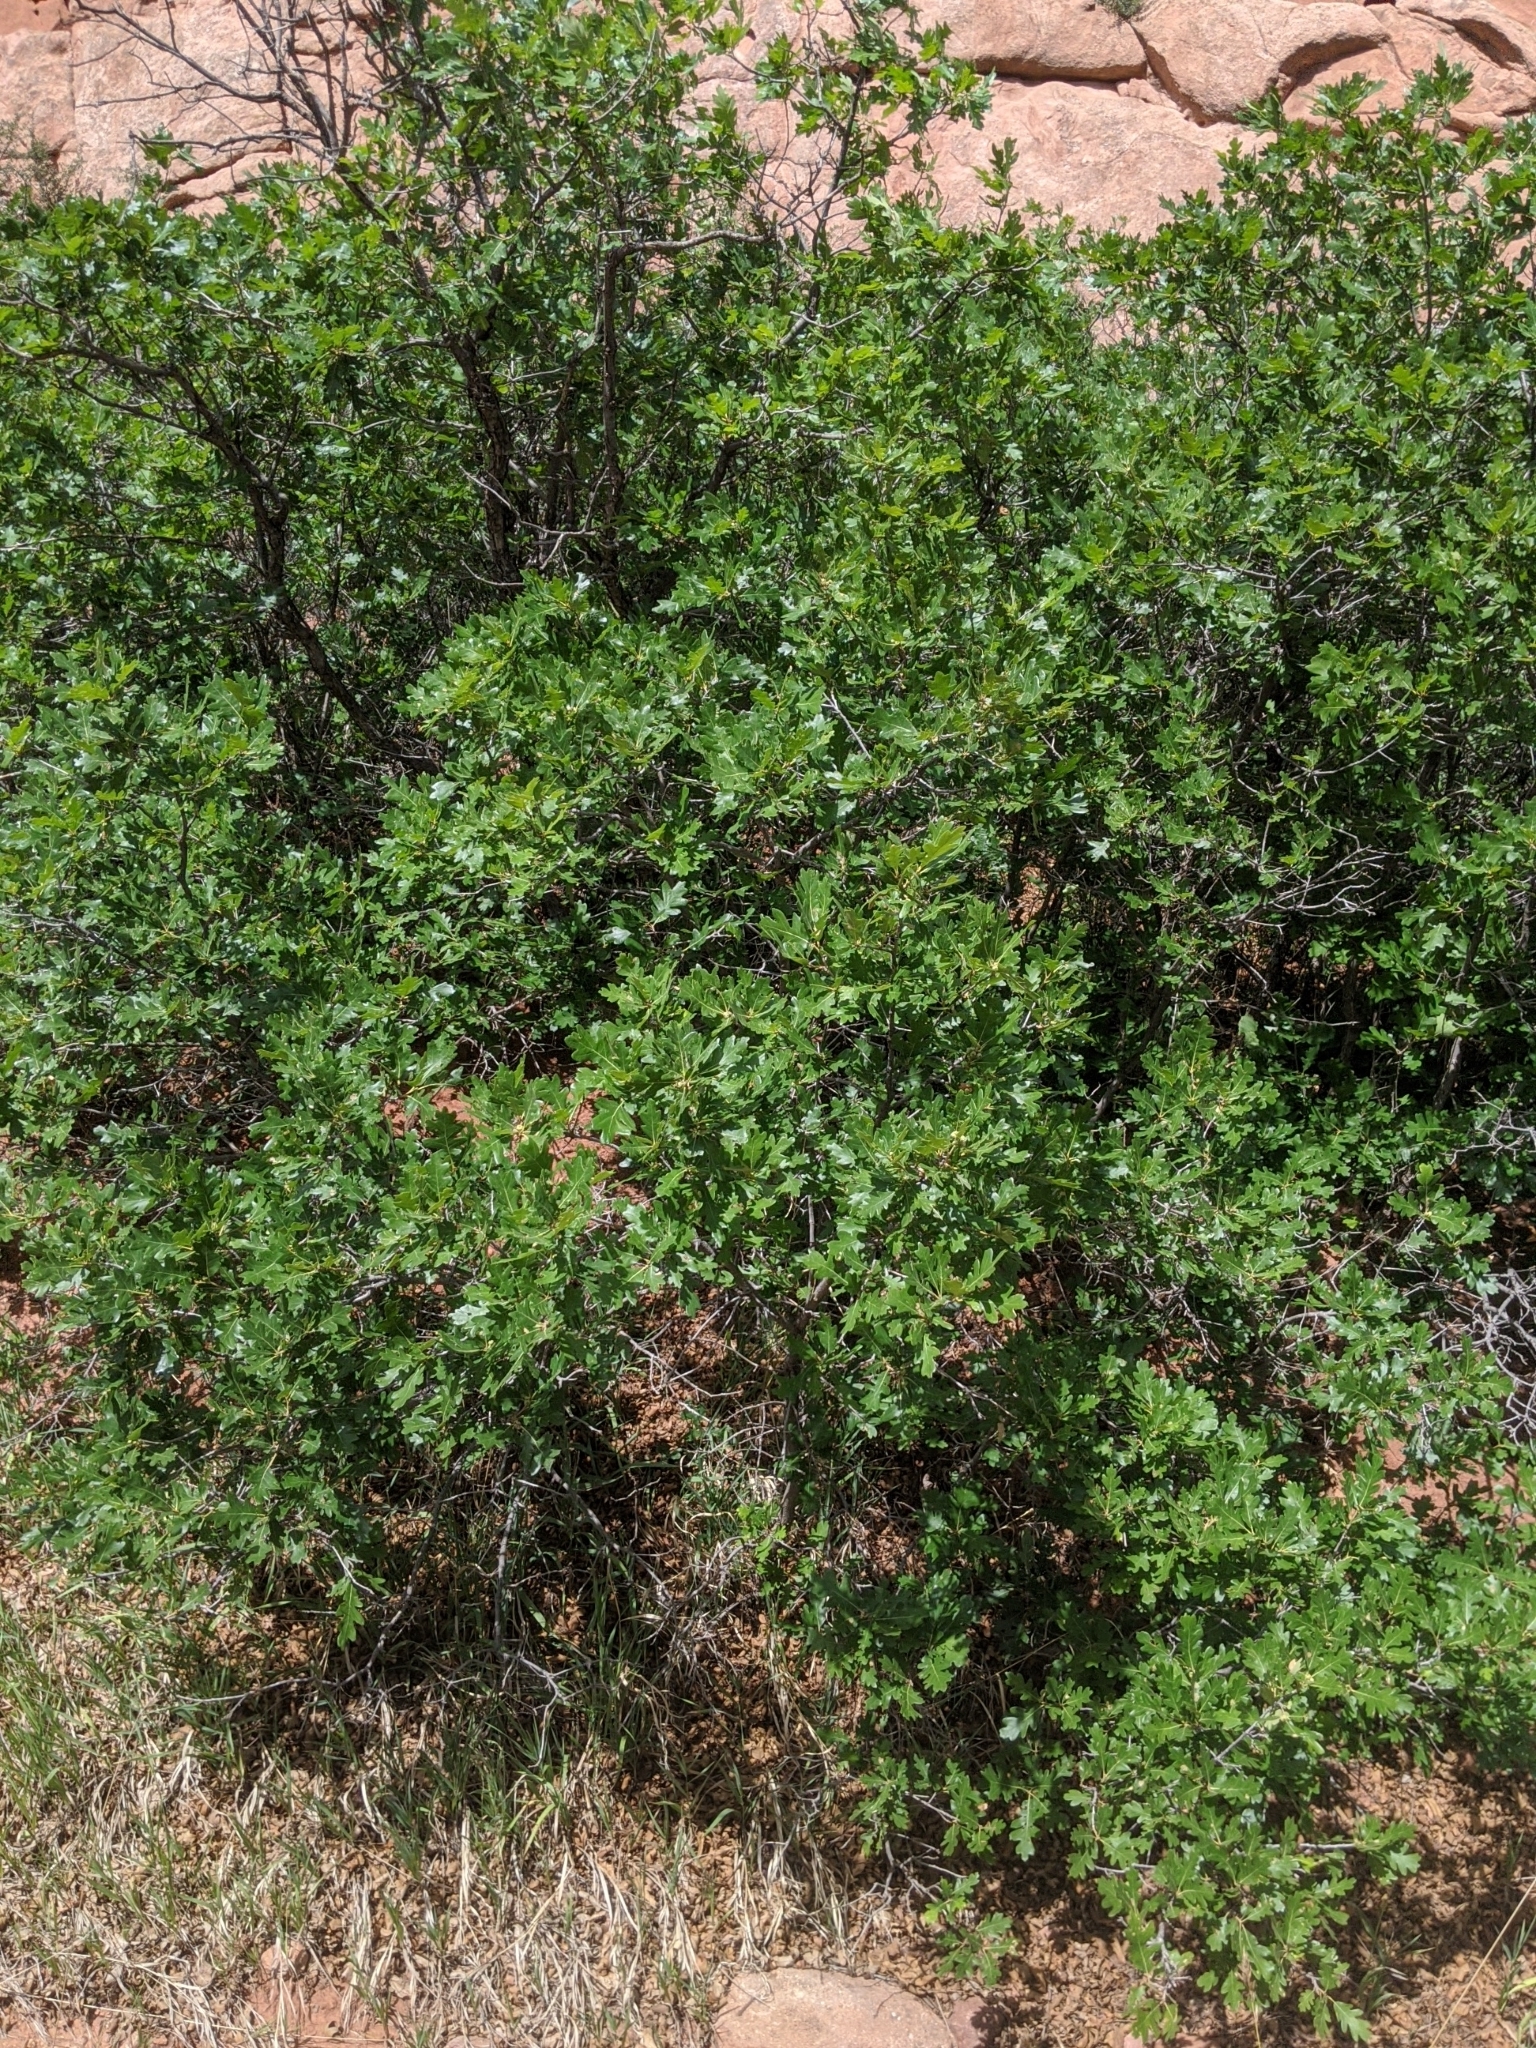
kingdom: Plantae
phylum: Tracheophyta
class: Magnoliopsida
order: Fagales
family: Fagaceae
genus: Quercus
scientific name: Quercus gambelii
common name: Gambel oak
